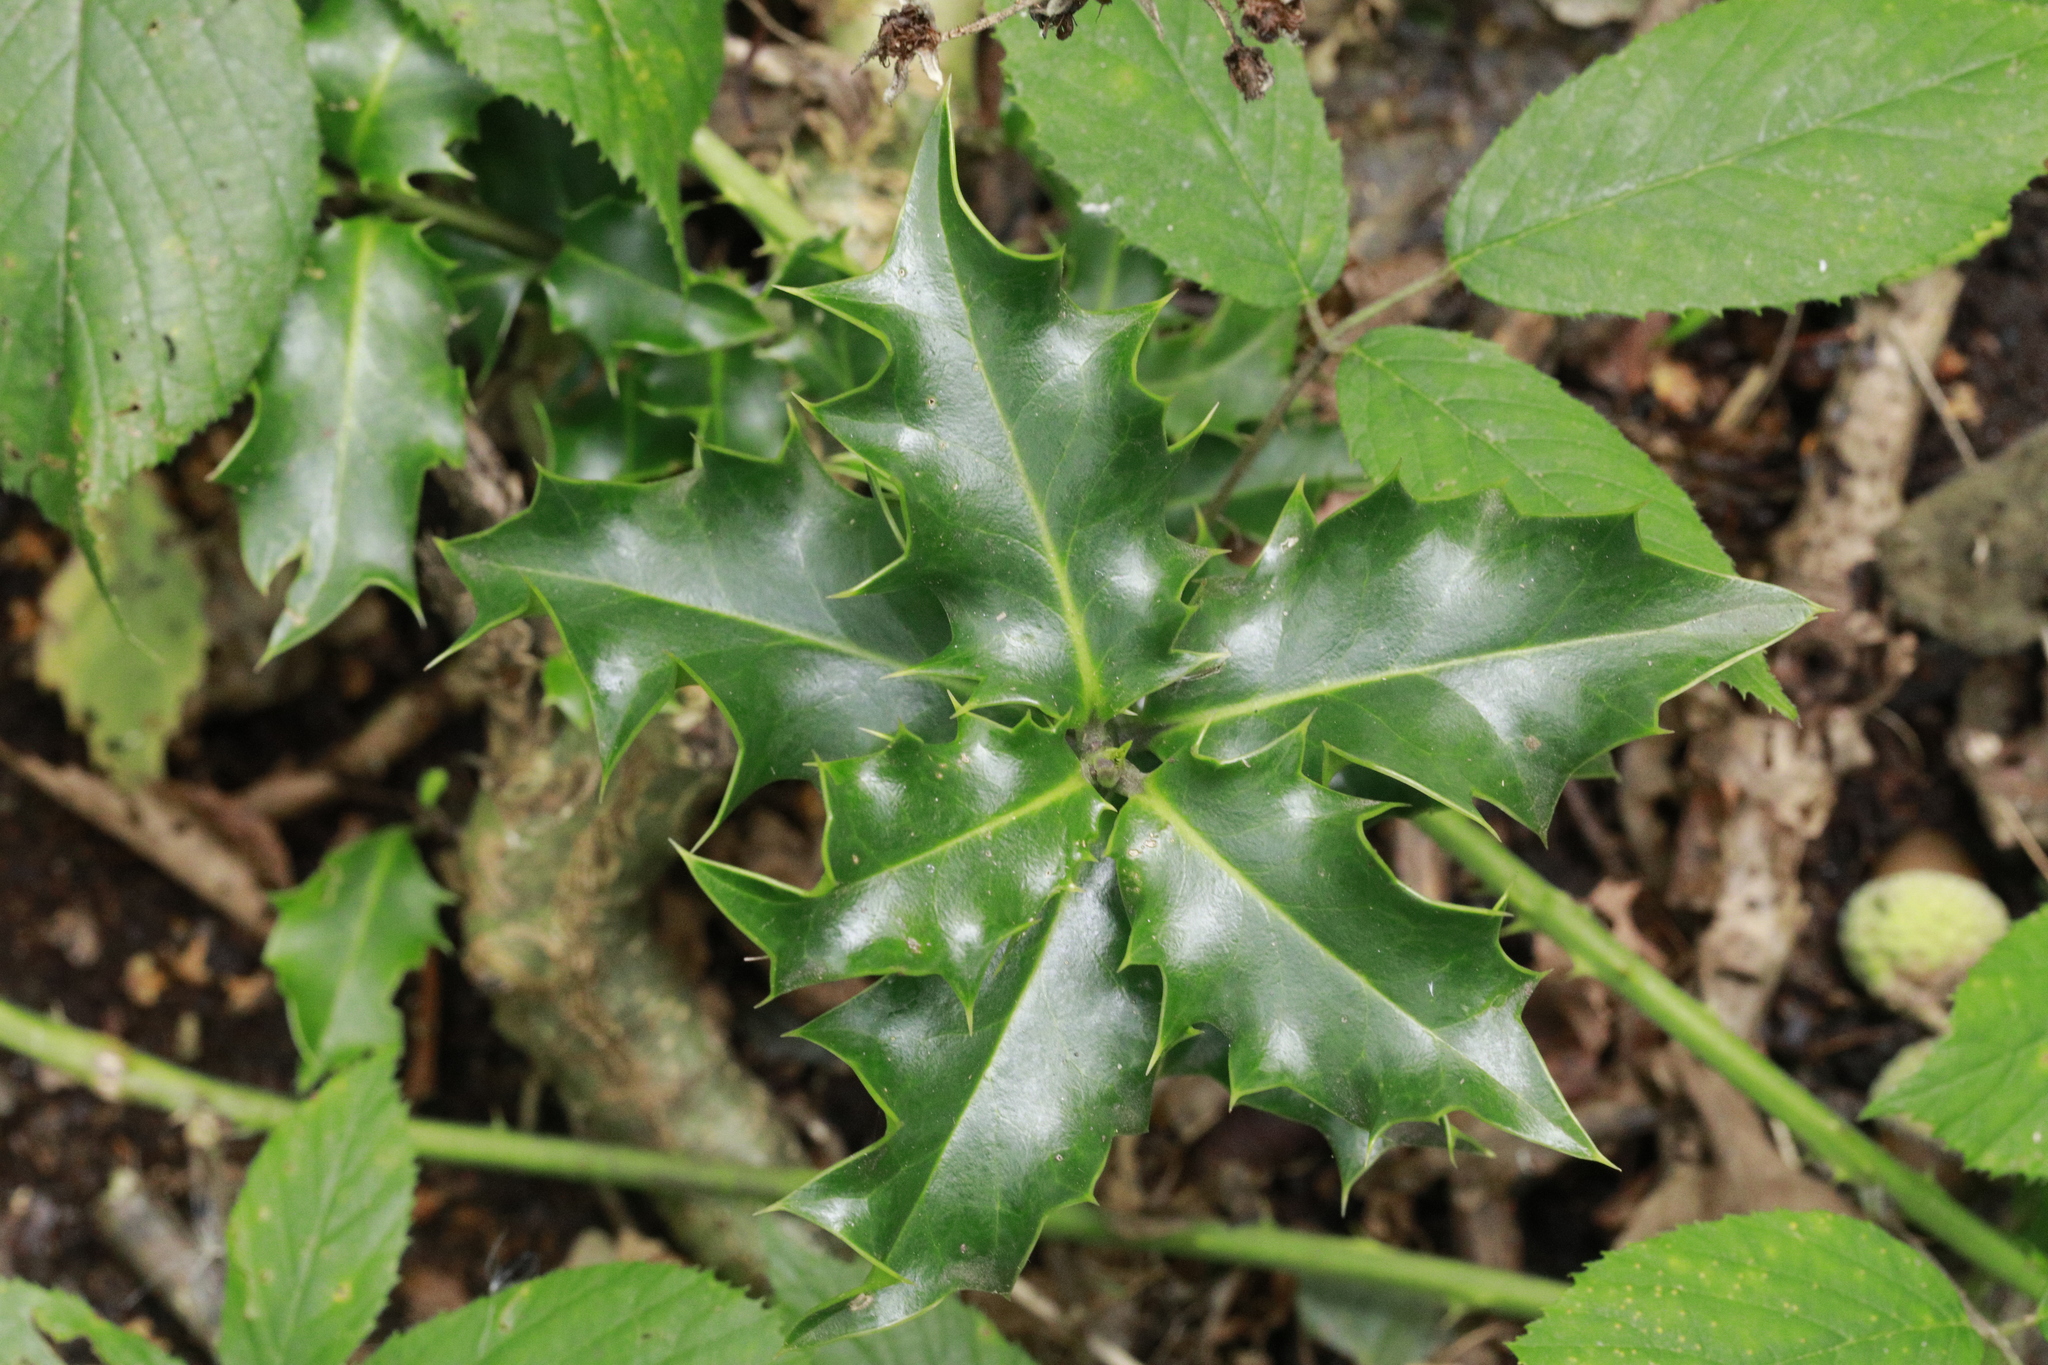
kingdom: Plantae
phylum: Tracheophyta
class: Magnoliopsida
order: Aquifoliales
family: Aquifoliaceae
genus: Ilex
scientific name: Ilex aquifolium
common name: English holly
